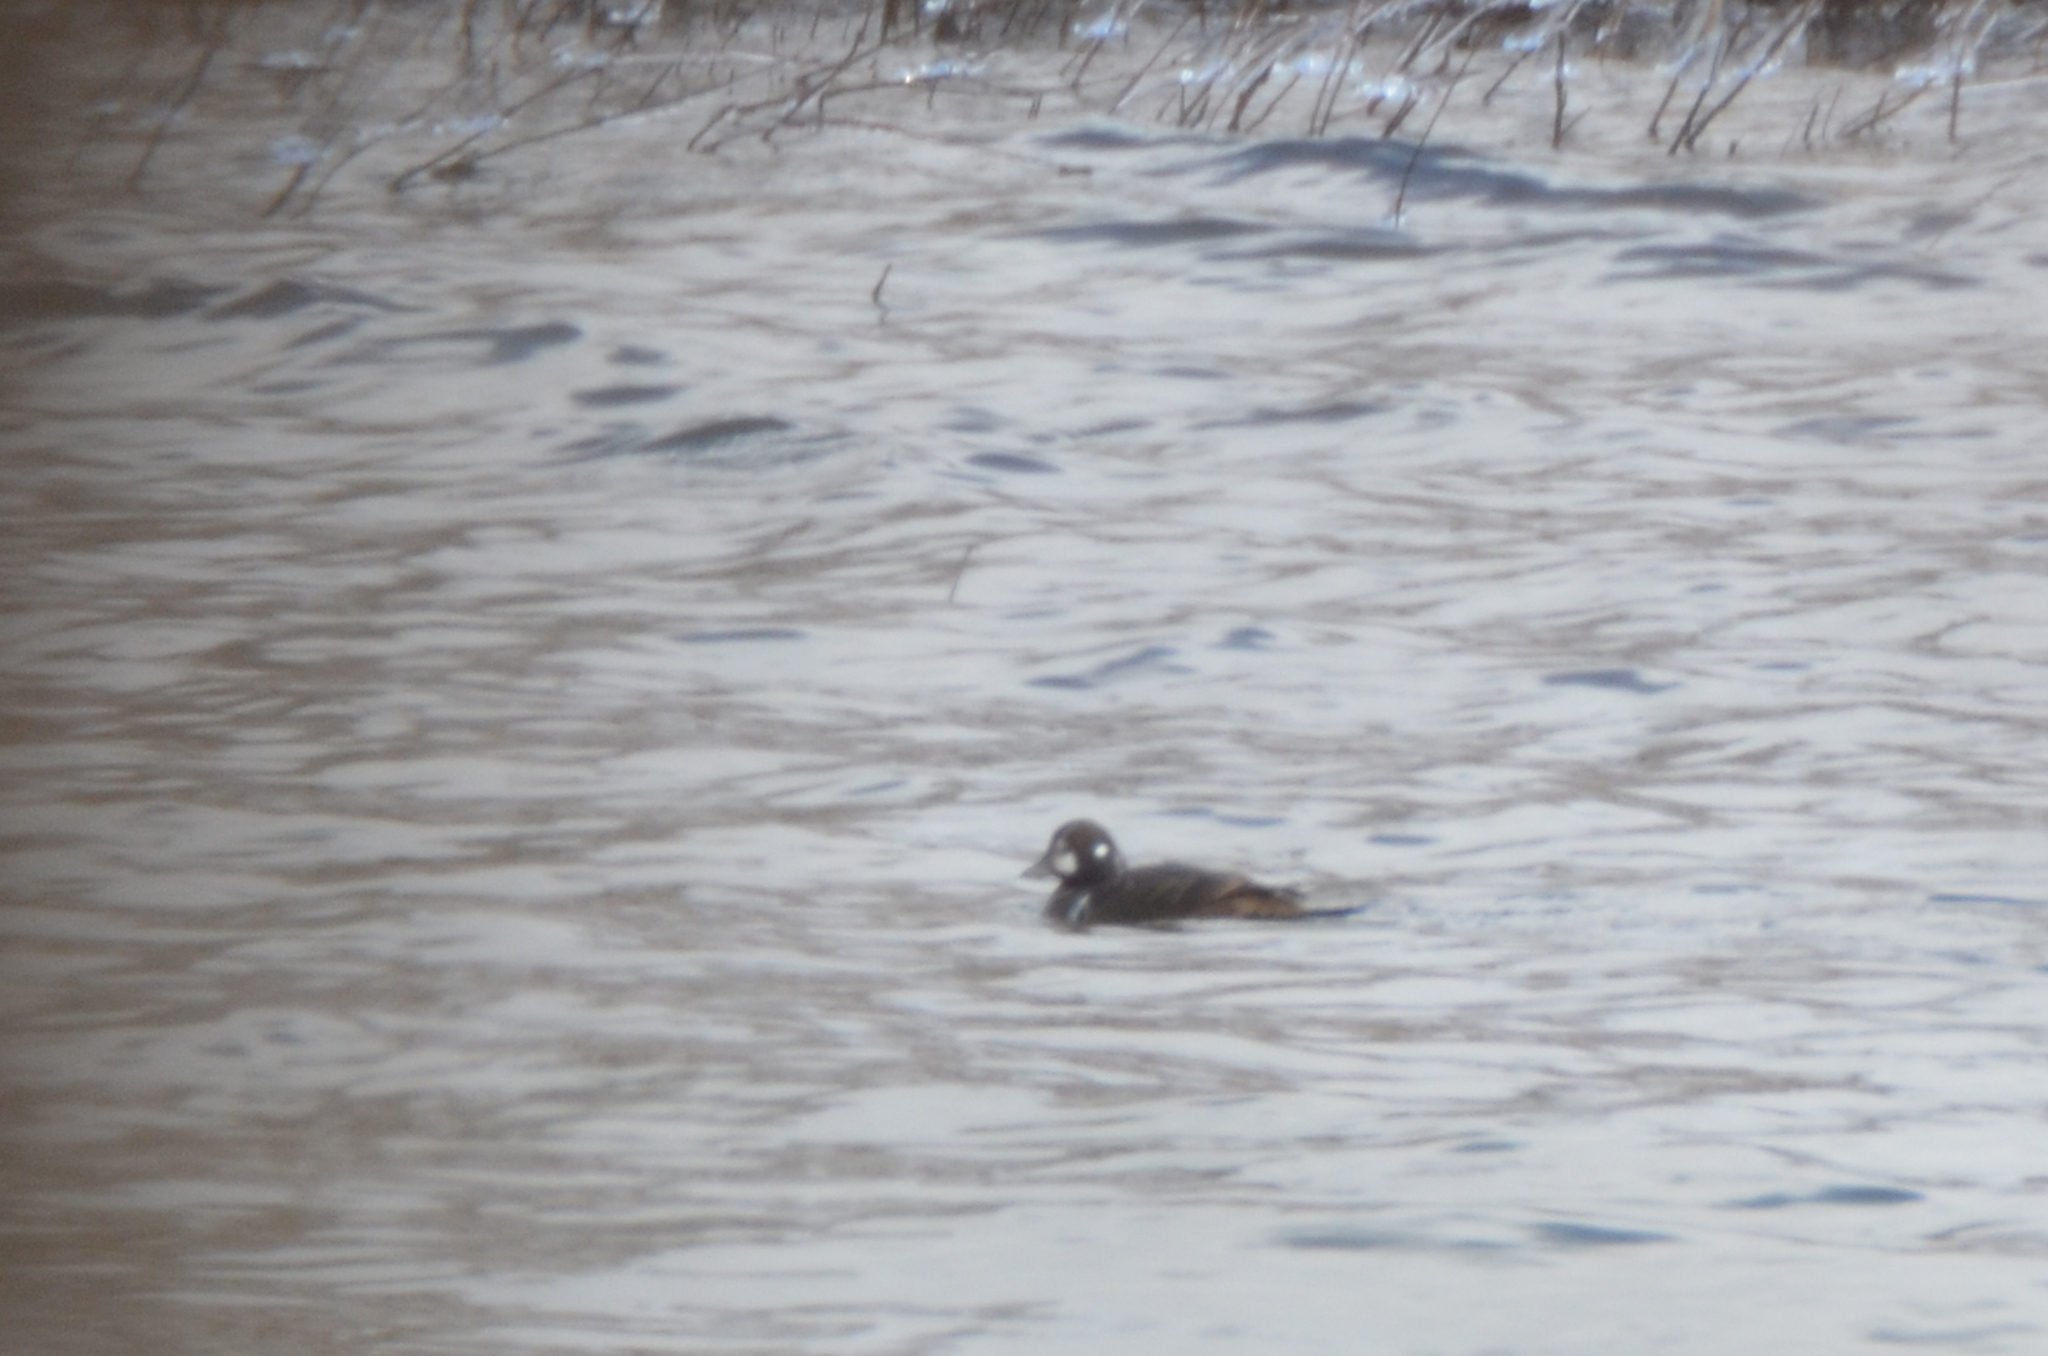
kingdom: Animalia
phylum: Chordata
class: Aves
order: Anseriformes
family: Anatidae
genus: Histrionicus
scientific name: Histrionicus histrionicus
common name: Harlequin duck
